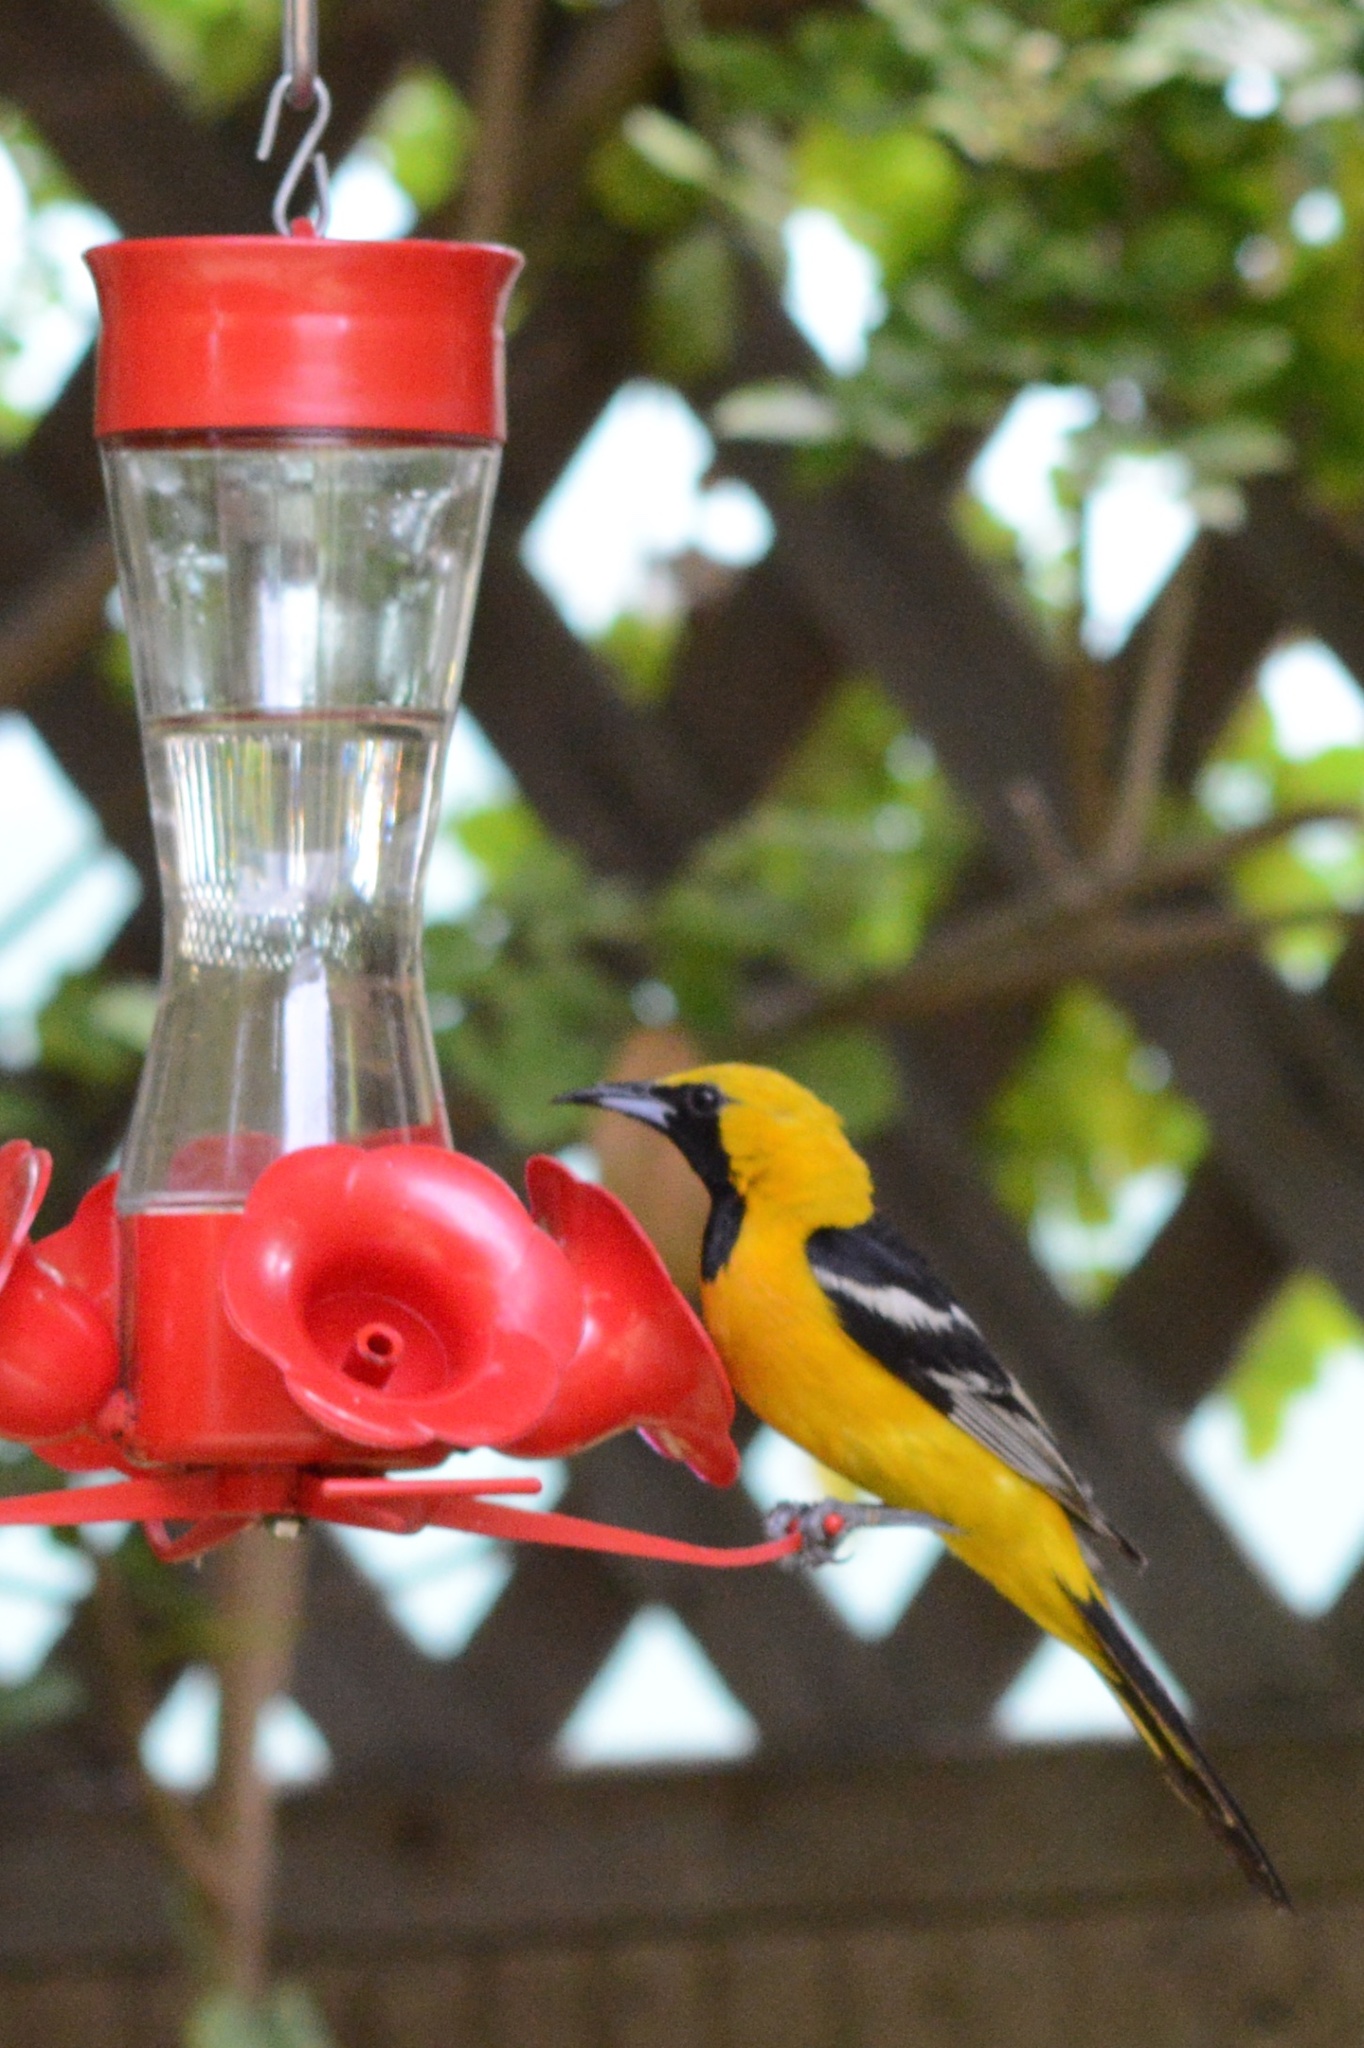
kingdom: Animalia
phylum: Chordata
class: Aves
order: Passeriformes
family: Icteridae
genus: Icterus
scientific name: Icterus cucullatus
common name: Hooded oriole
